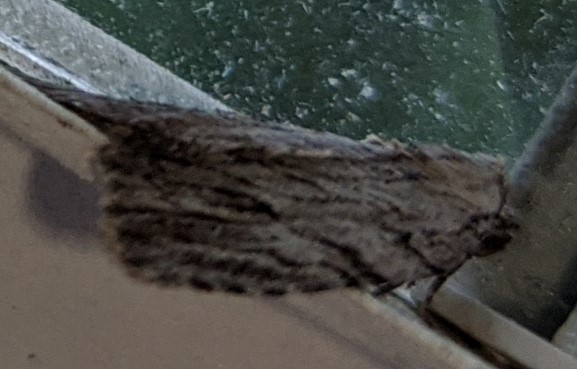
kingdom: Animalia
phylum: Arthropoda
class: Insecta
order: Lepidoptera
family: Noctuidae
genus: Balsa
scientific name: Balsa tristrigella
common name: Three-lined balsa moth
